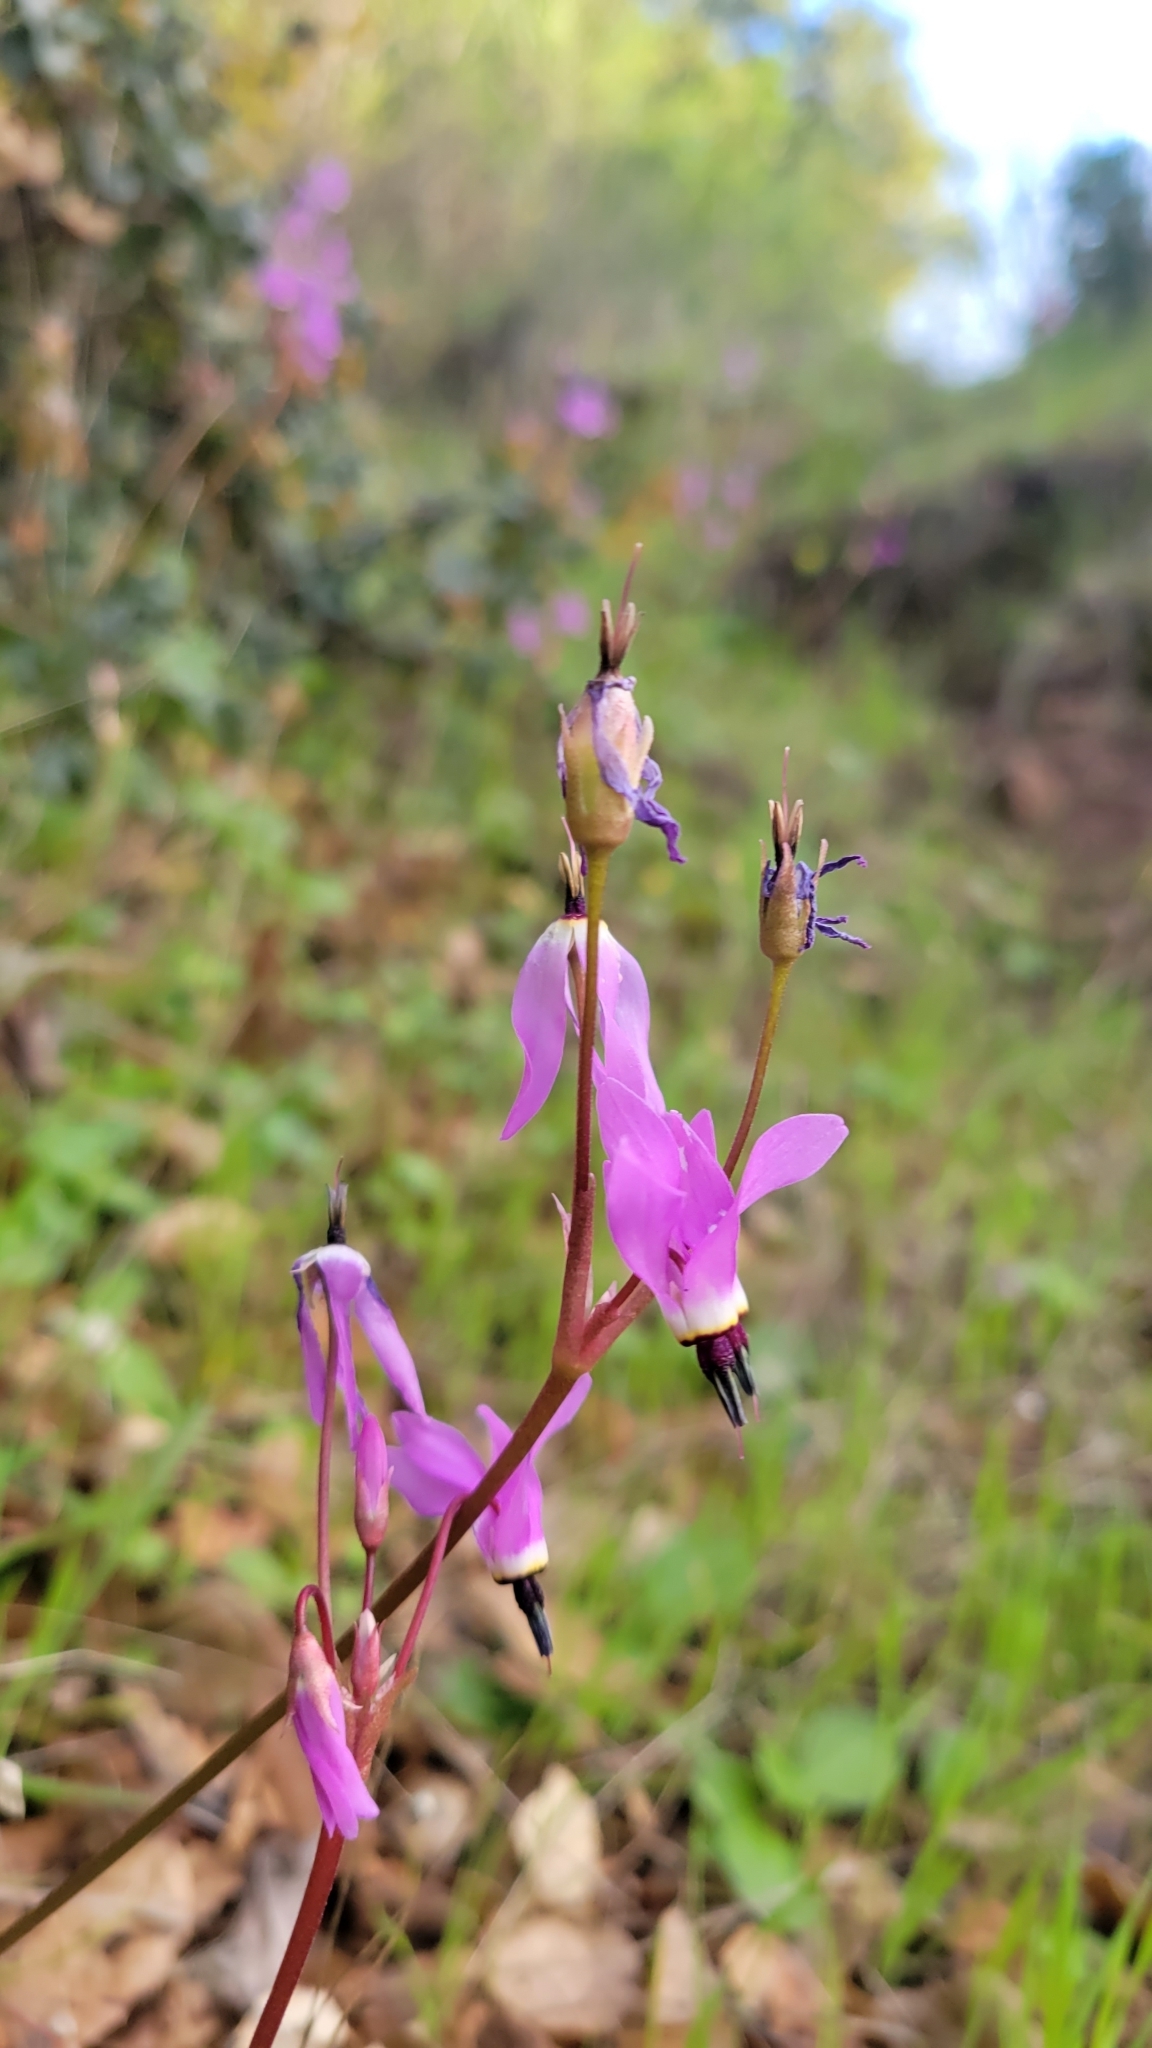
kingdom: Plantae
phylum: Tracheophyta
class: Magnoliopsida
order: Ericales
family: Primulaceae
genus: Dodecatheon
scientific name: Dodecatheon hendersonii
